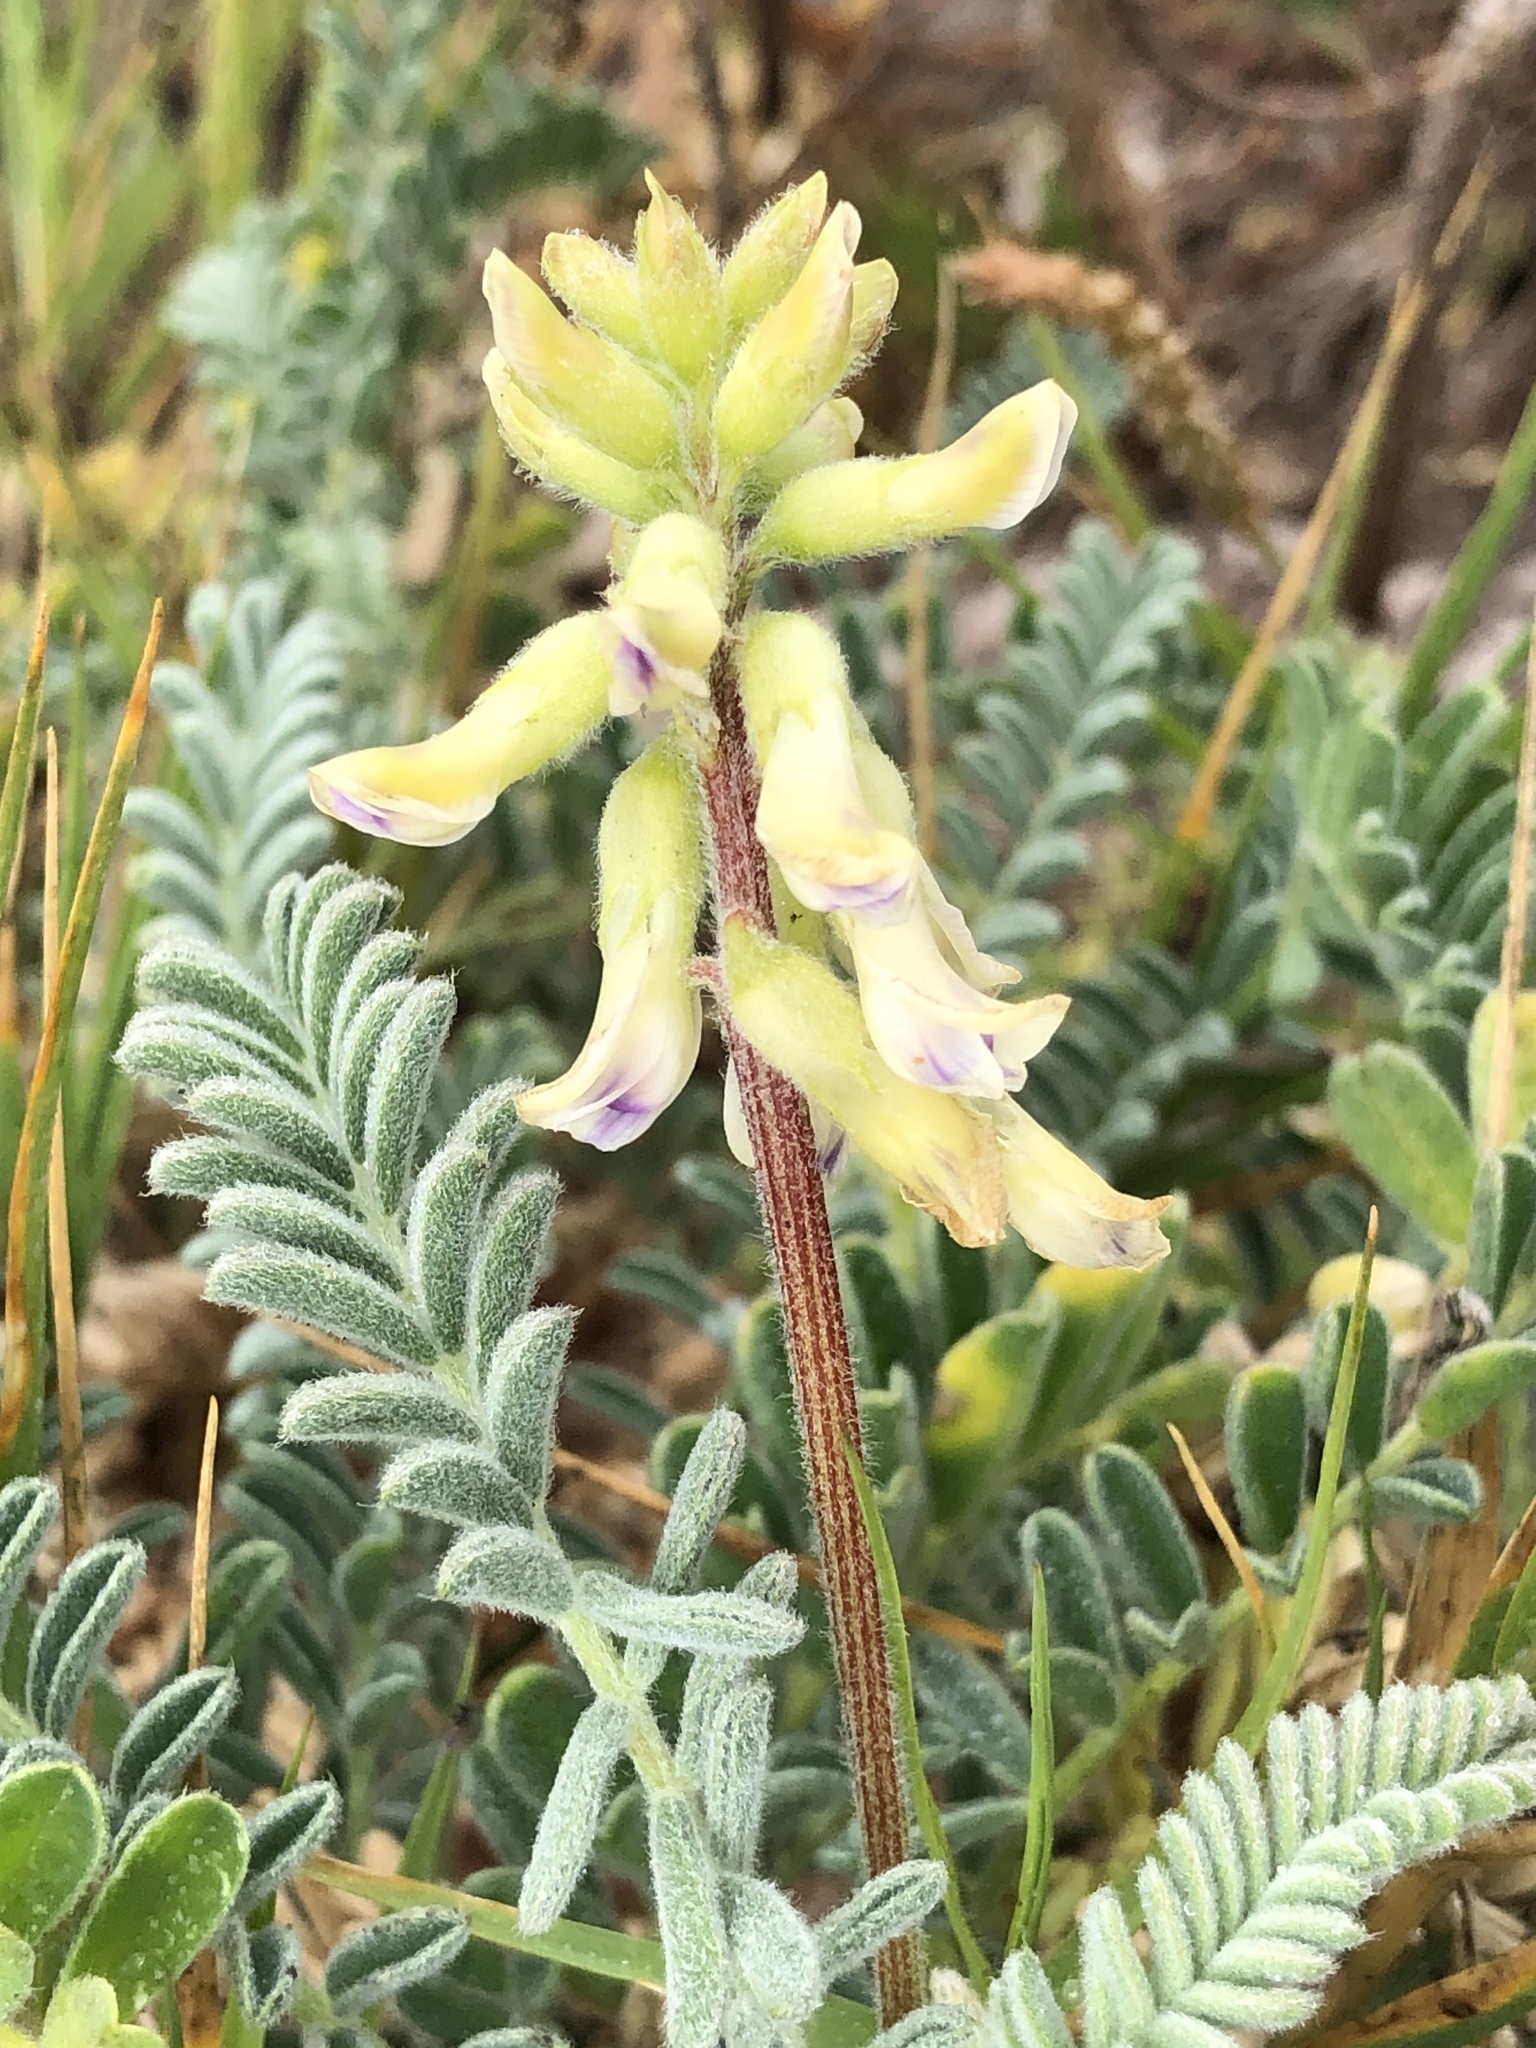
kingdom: Plantae
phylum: Tracheophyta
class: Magnoliopsida
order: Fabales
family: Fabaceae
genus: Astragalus
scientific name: Astragalus nuttallii
